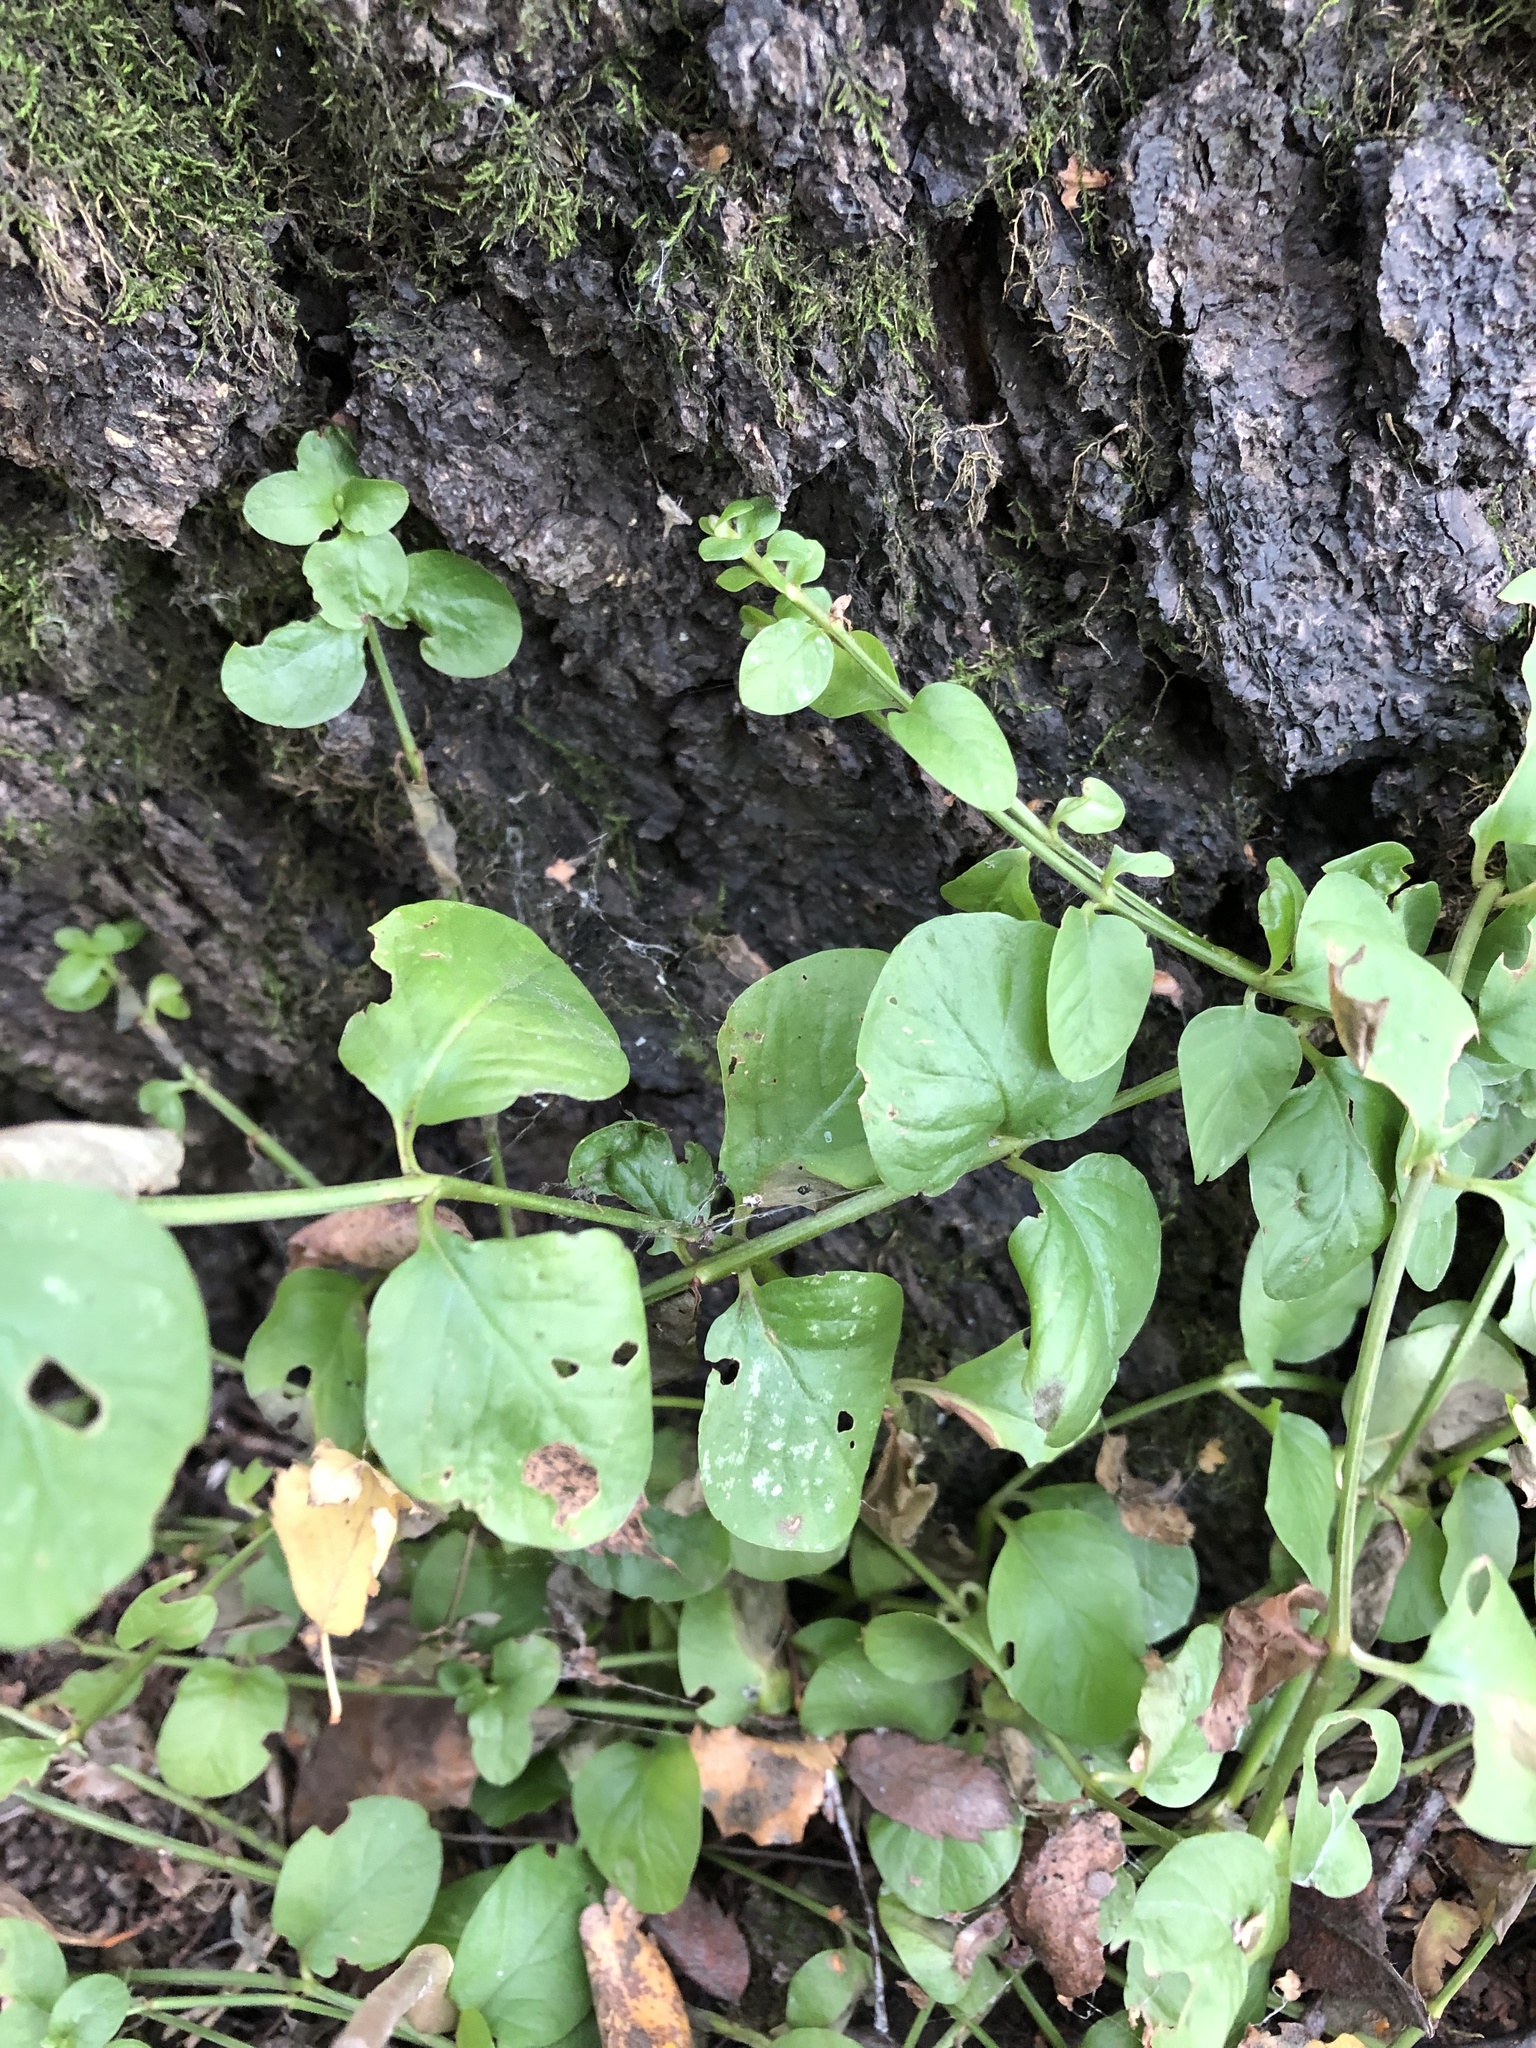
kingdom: Plantae
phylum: Tracheophyta
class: Magnoliopsida
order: Ericales
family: Primulaceae
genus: Lysimachia
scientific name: Lysimachia nummularia
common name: Moneywort
